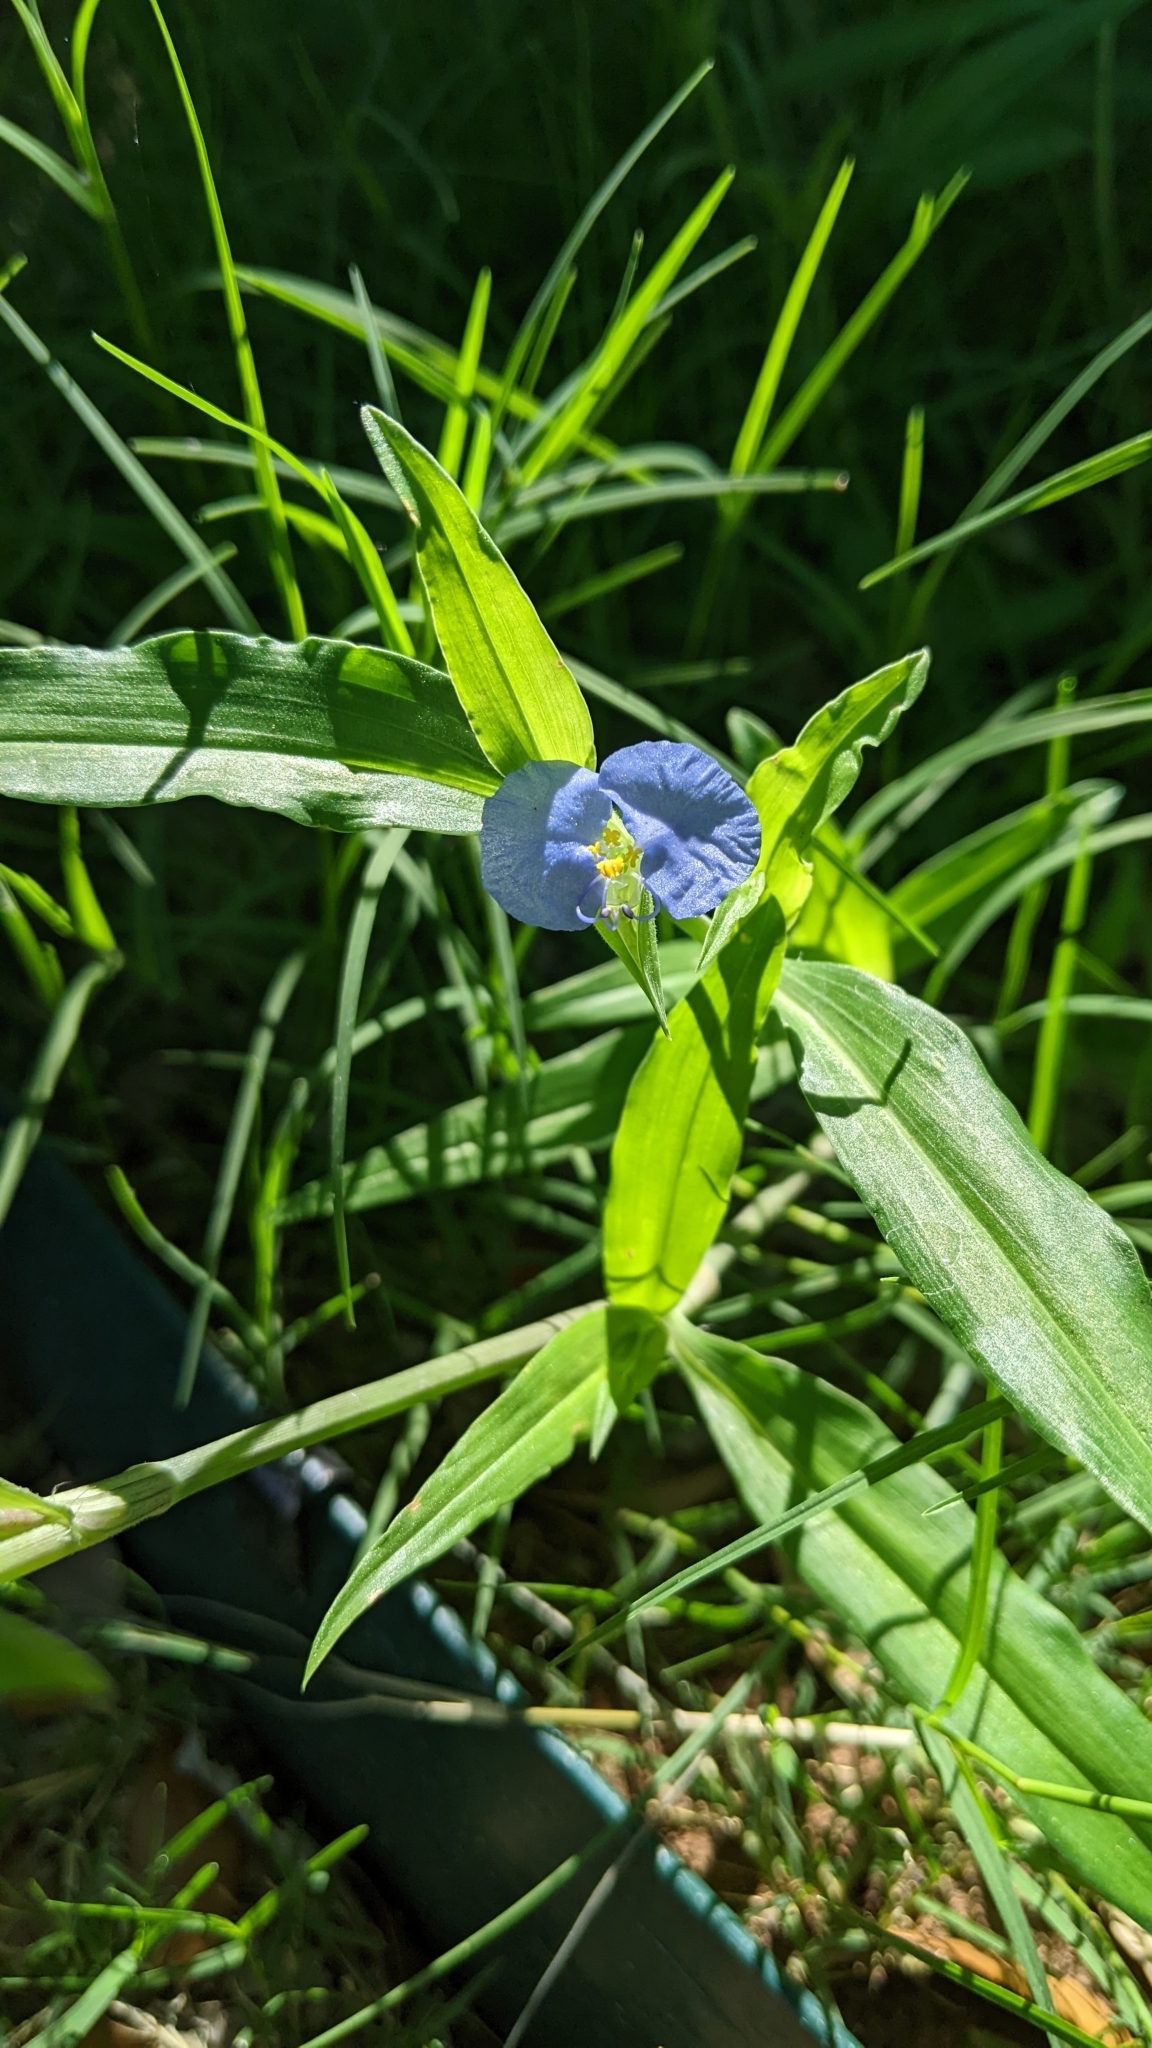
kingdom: Plantae
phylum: Tracheophyta
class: Liliopsida
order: Commelinales
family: Commelinaceae
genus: Commelina
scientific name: Commelina erecta
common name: Blousel blommetjie
